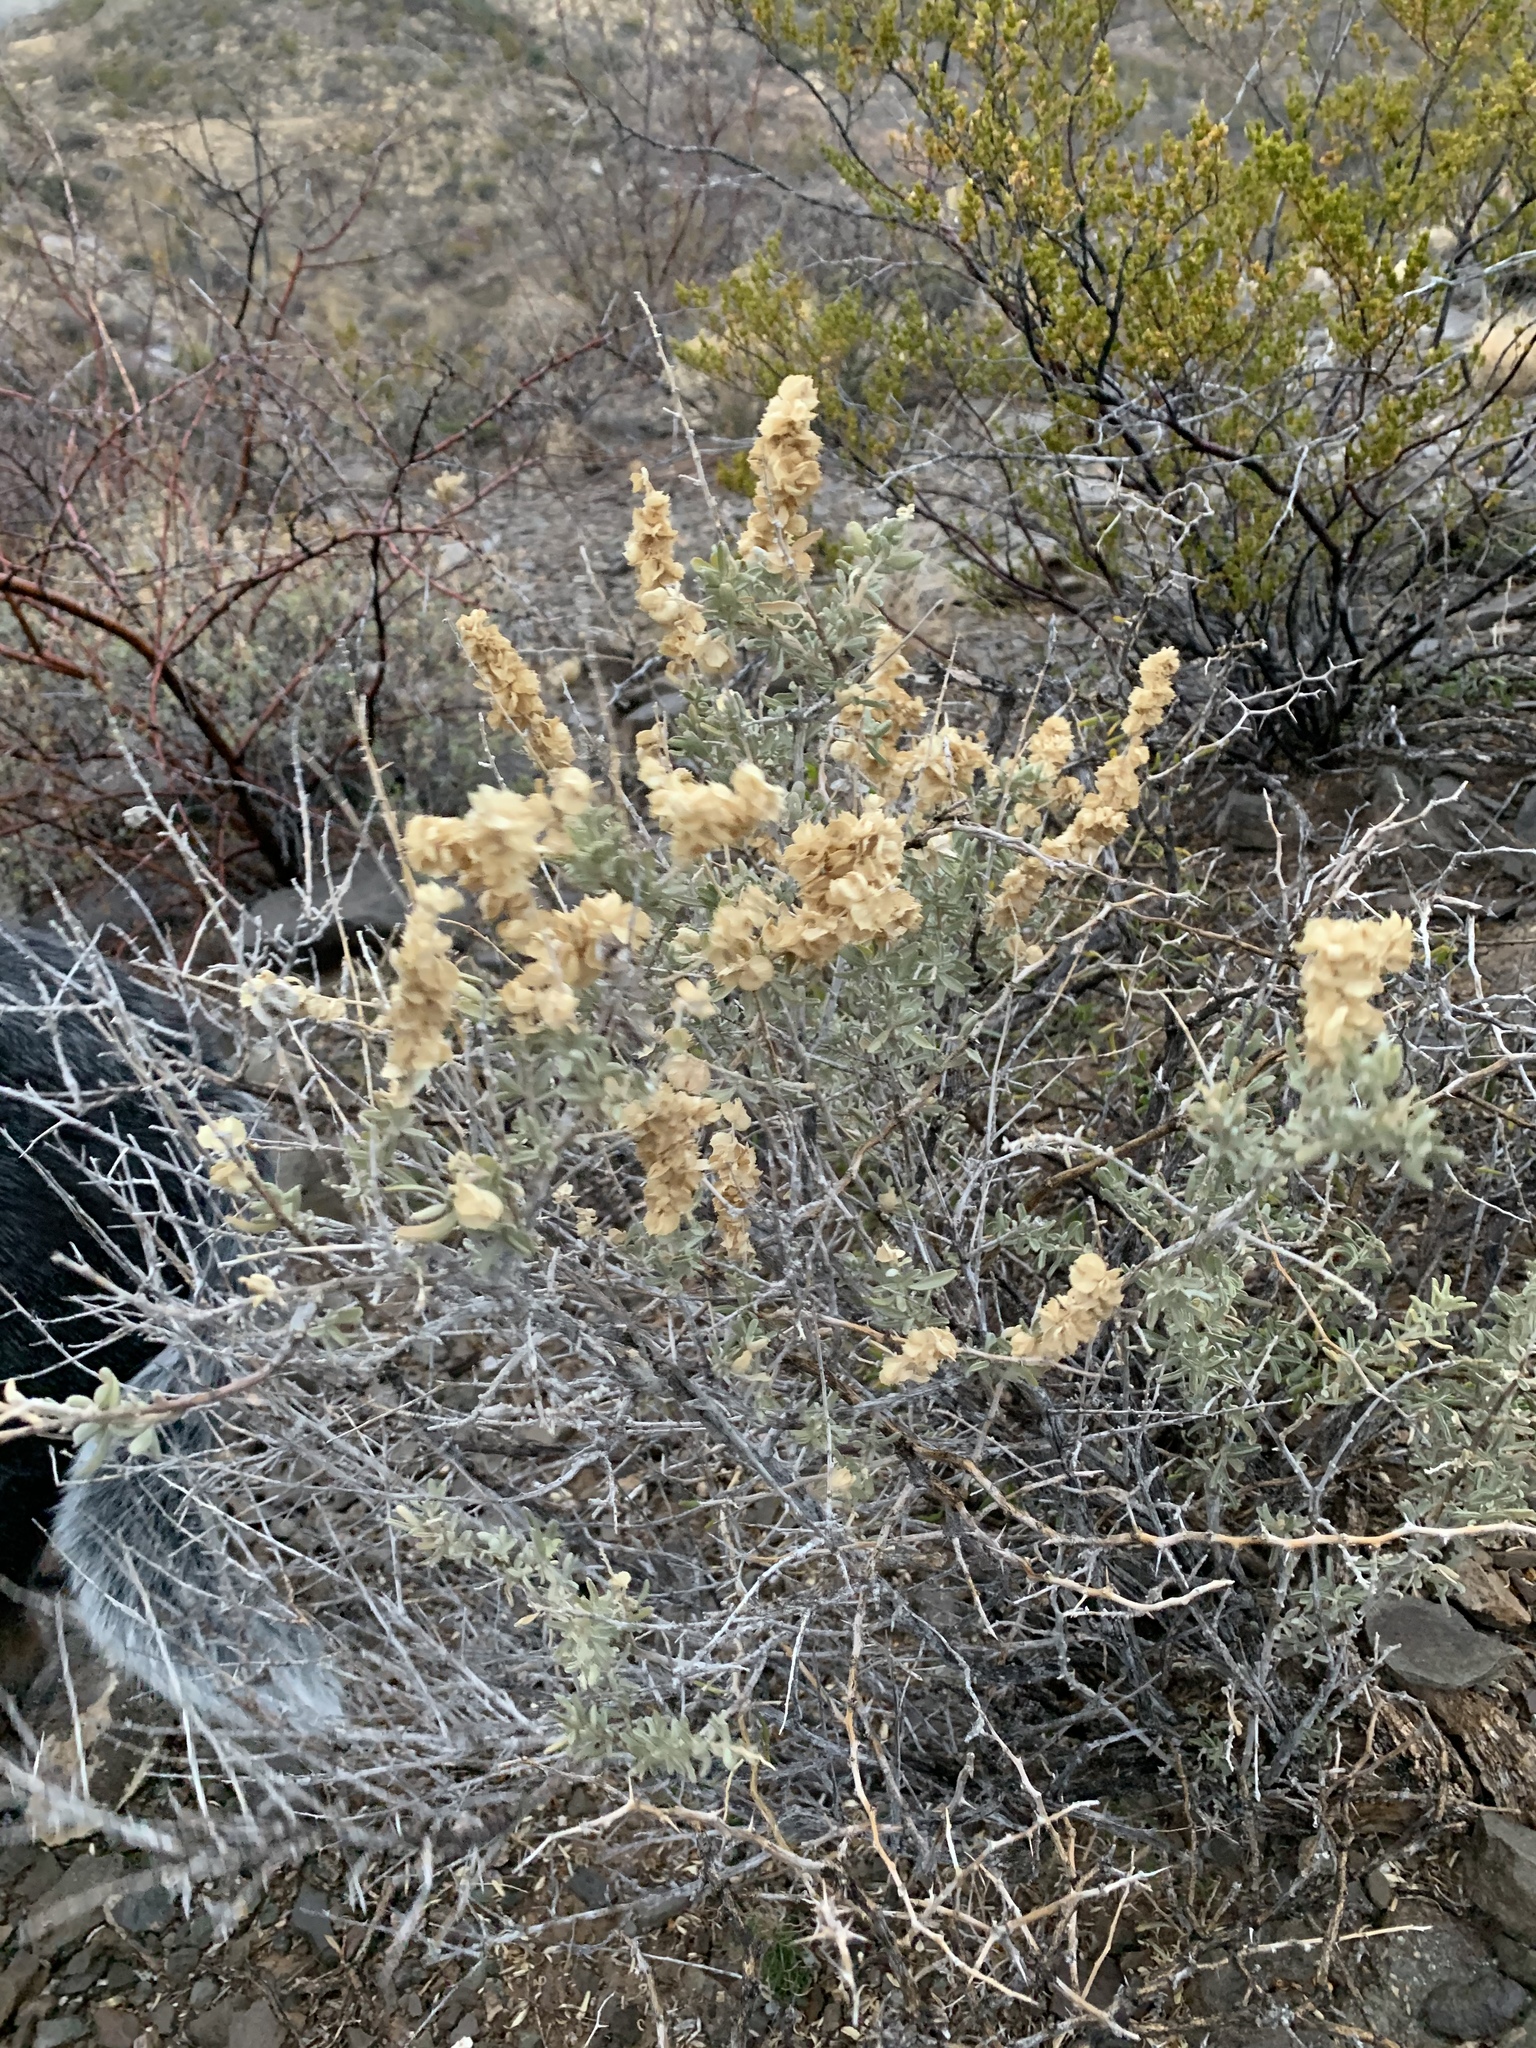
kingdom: Plantae
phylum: Tracheophyta
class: Magnoliopsida
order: Caryophyllales
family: Amaranthaceae
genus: Atriplex
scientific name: Atriplex canescens
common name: Four-wing saltbush
